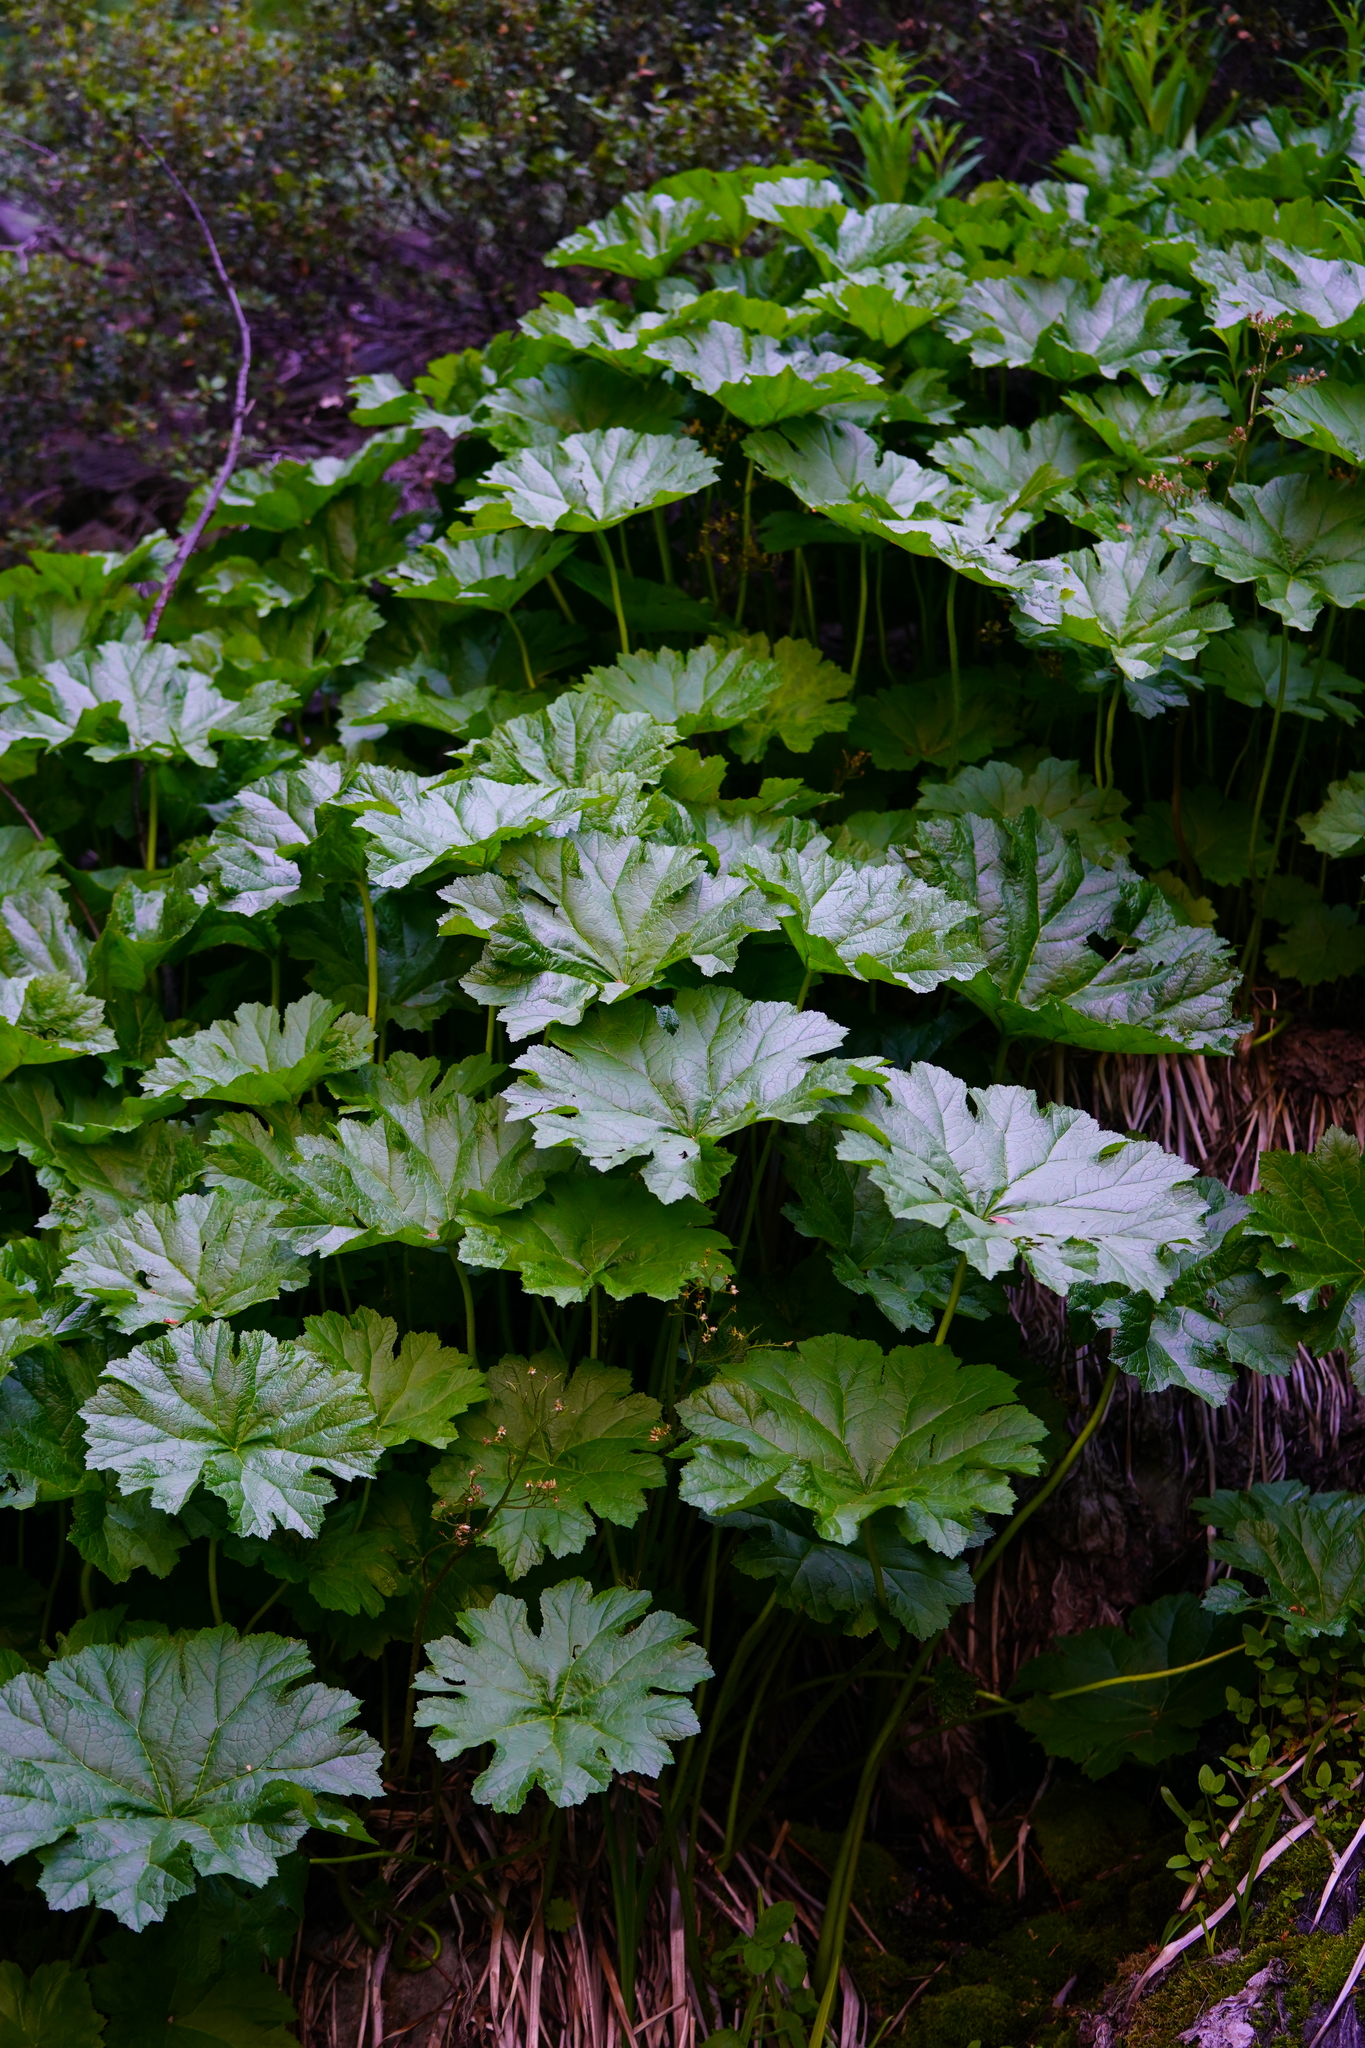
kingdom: Plantae
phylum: Tracheophyta
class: Magnoliopsida
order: Saxifragales
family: Saxifragaceae
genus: Darmera
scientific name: Darmera peltata
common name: Indian-rhubarb
